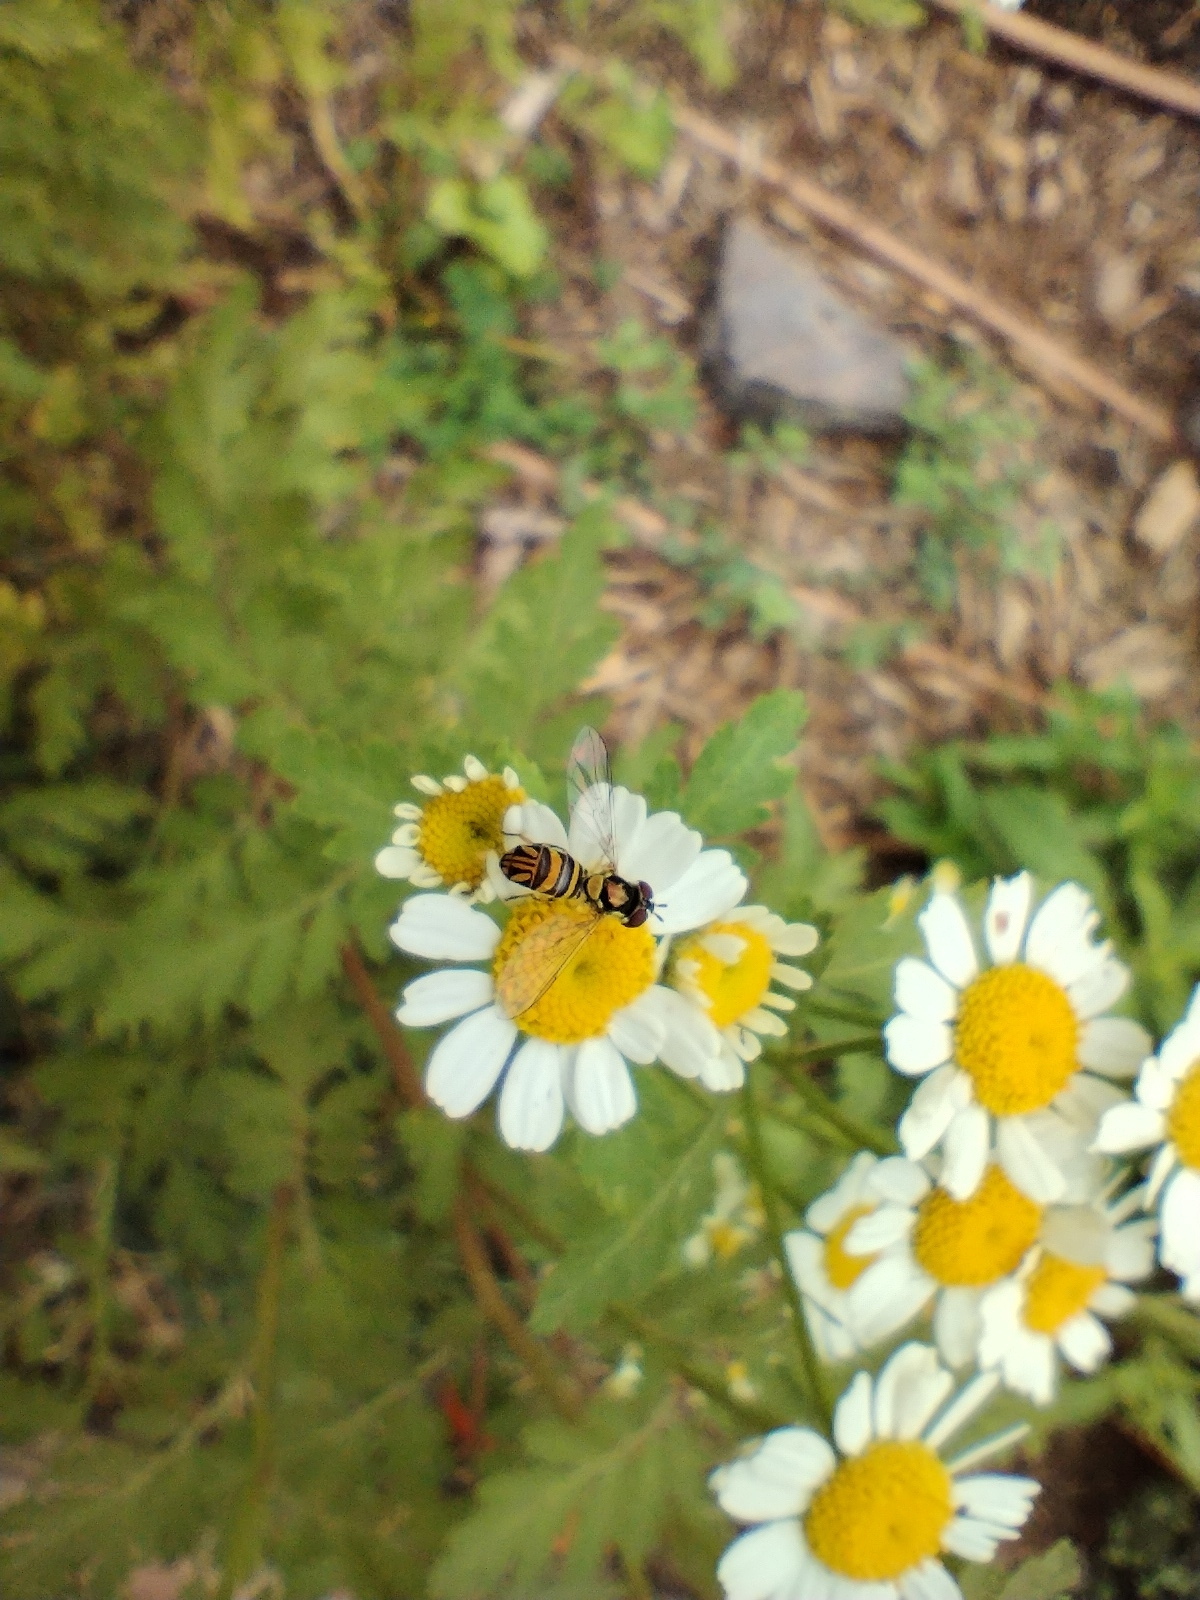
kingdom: Animalia
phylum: Arthropoda
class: Insecta
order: Diptera
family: Syrphidae
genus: Allograpta
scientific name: Allograpta obliqua
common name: Common oblique syrphid
